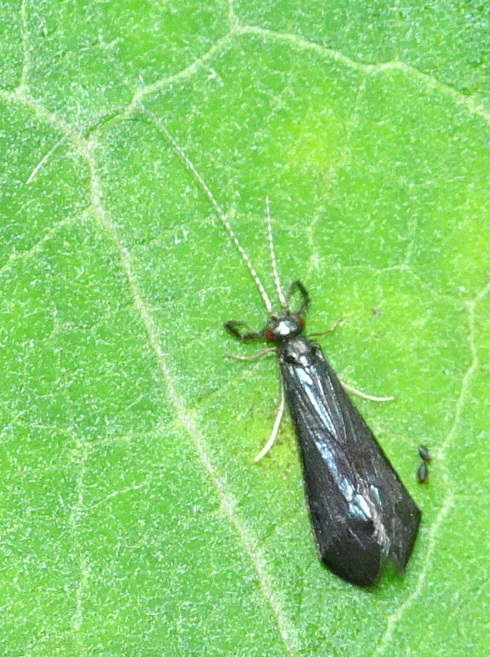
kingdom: Animalia
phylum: Arthropoda
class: Insecta
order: Trichoptera
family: Leptoceridae
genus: Mystacides
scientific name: Mystacides sepulchralis
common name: Black dancer caddisfly
